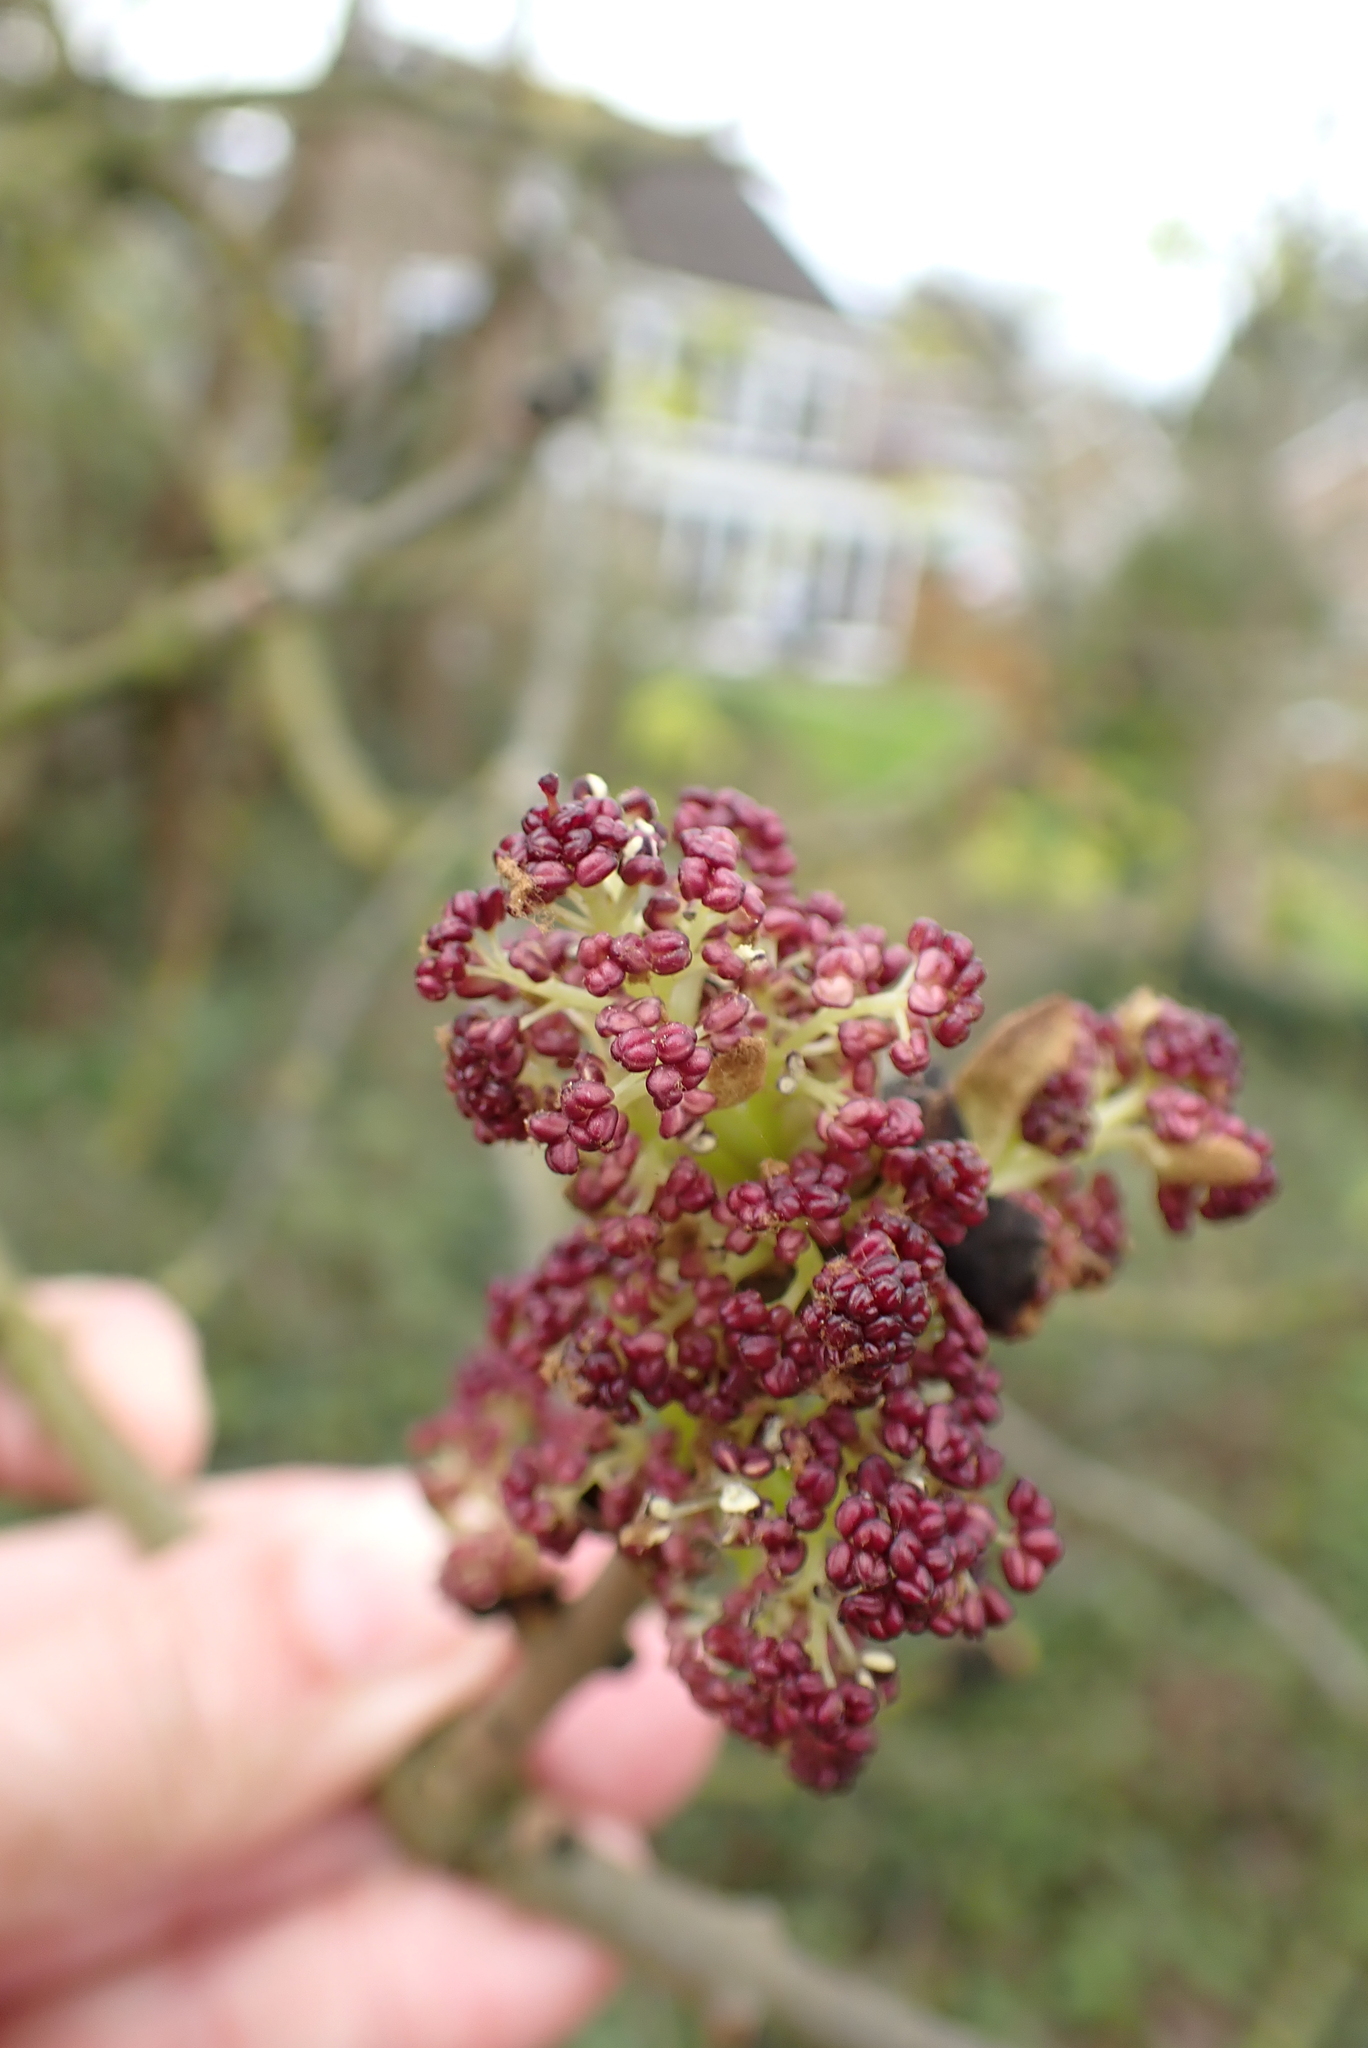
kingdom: Plantae
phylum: Tracheophyta
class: Magnoliopsida
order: Lamiales
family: Oleaceae
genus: Fraxinus
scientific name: Fraxinus excelsior
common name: European ash
